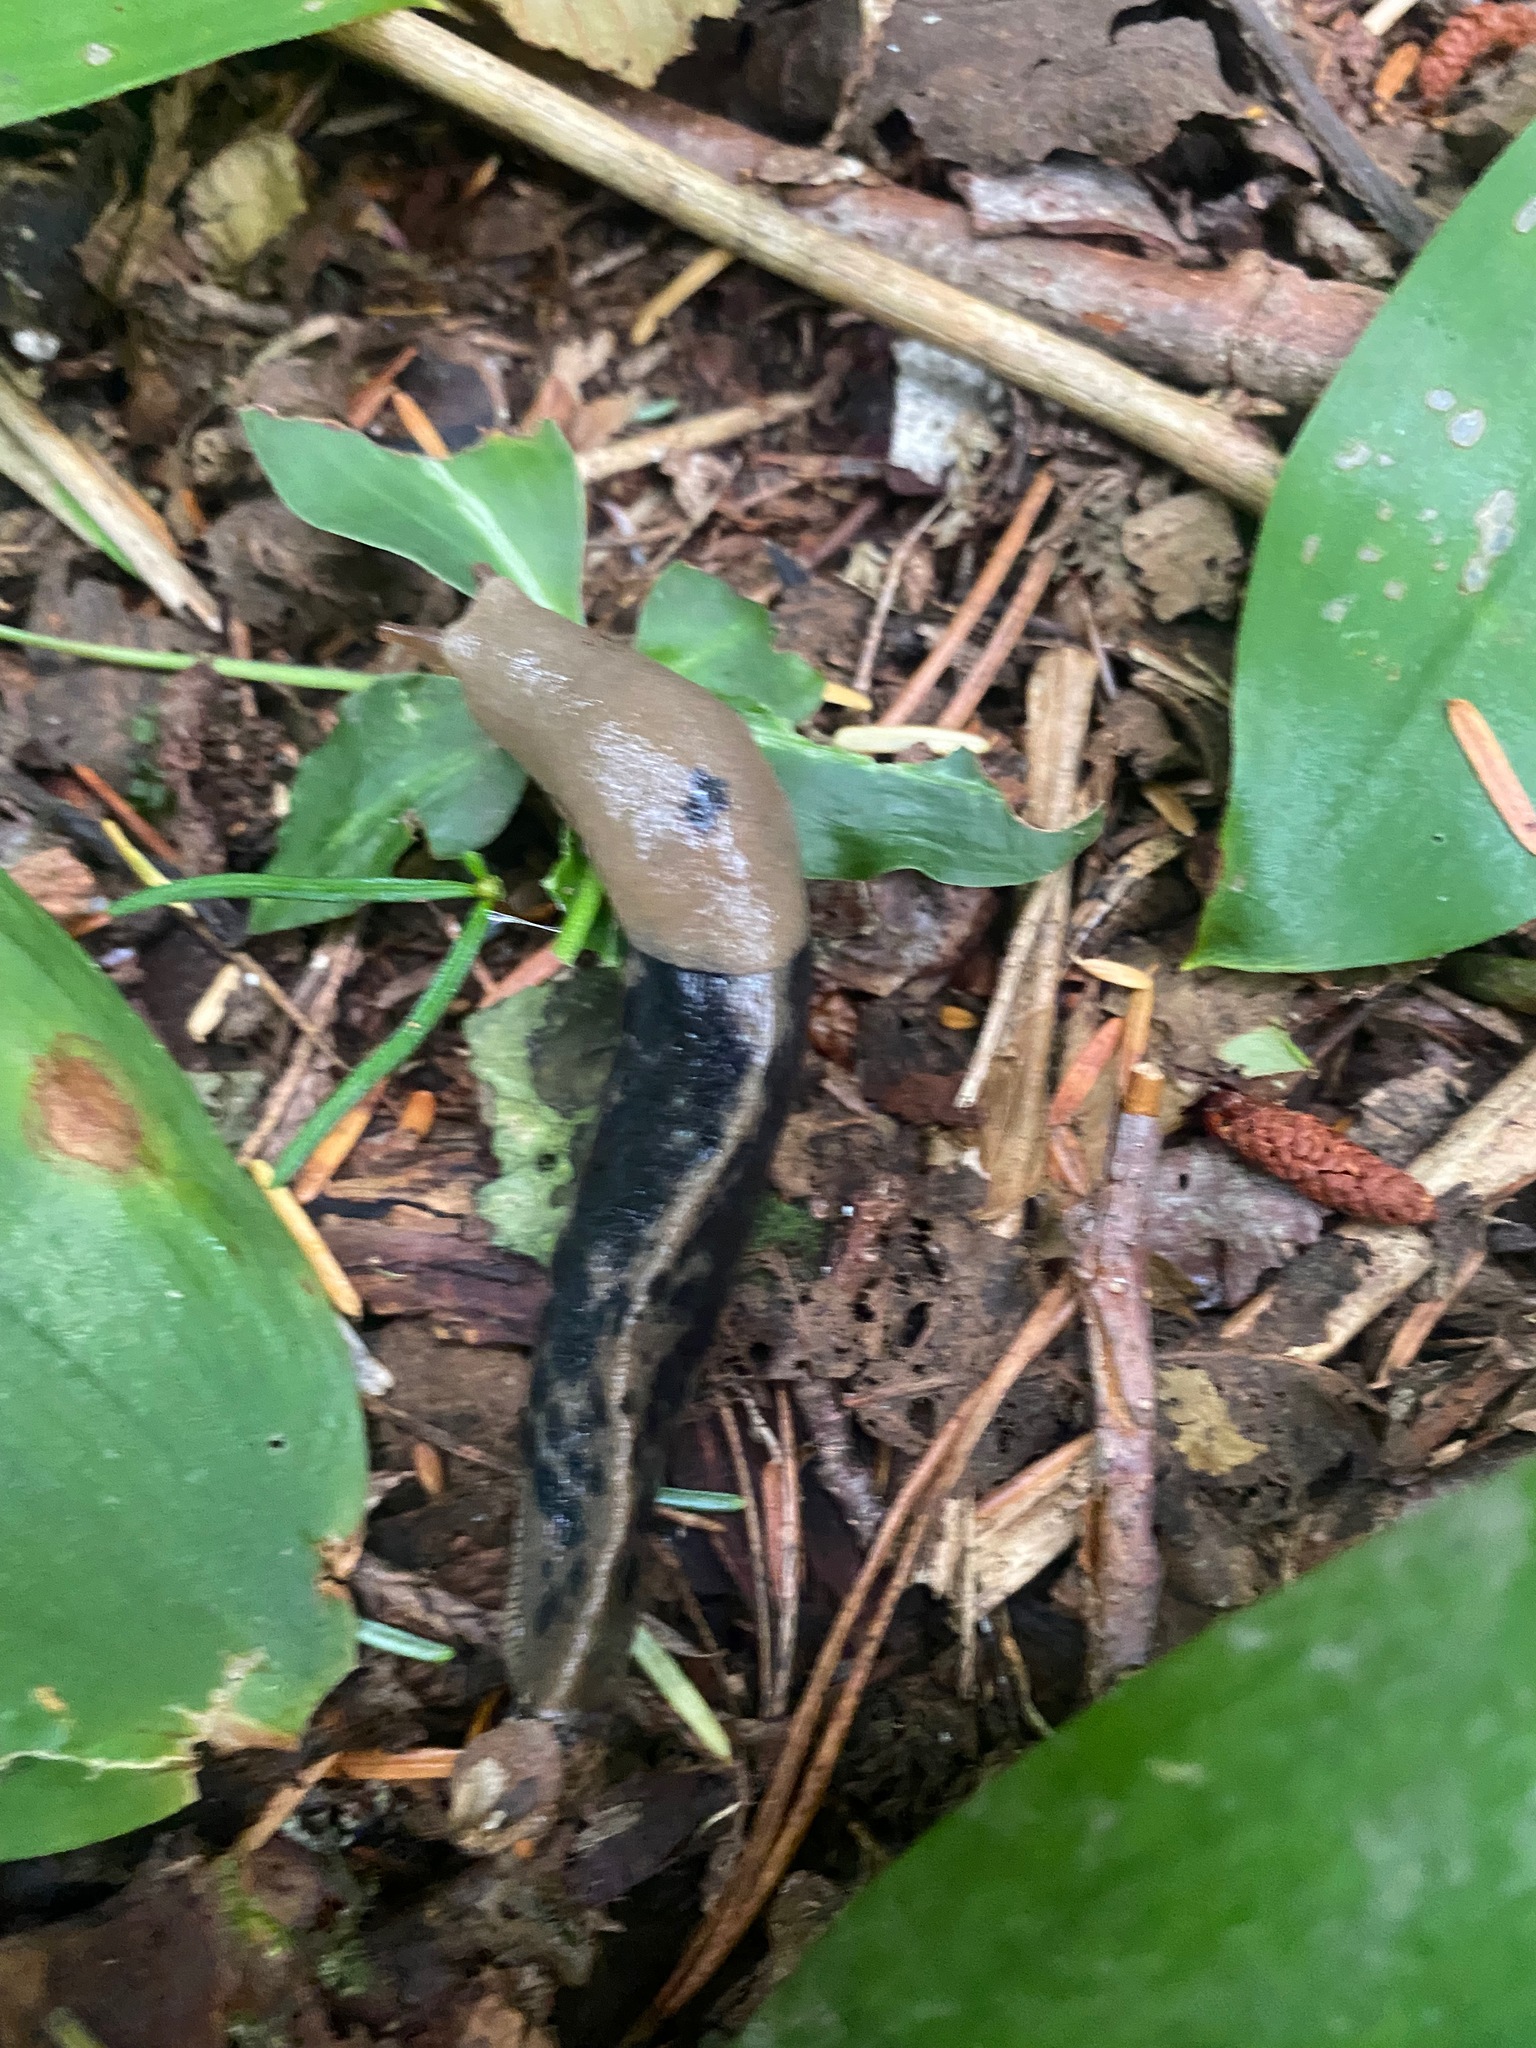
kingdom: Animalia
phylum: Mollusca
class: Gastropoda
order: Stylommatophora
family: Ariolimacidae
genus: Ariolimax
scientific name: Ariolimax columbianus
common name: Pacific banana slug
